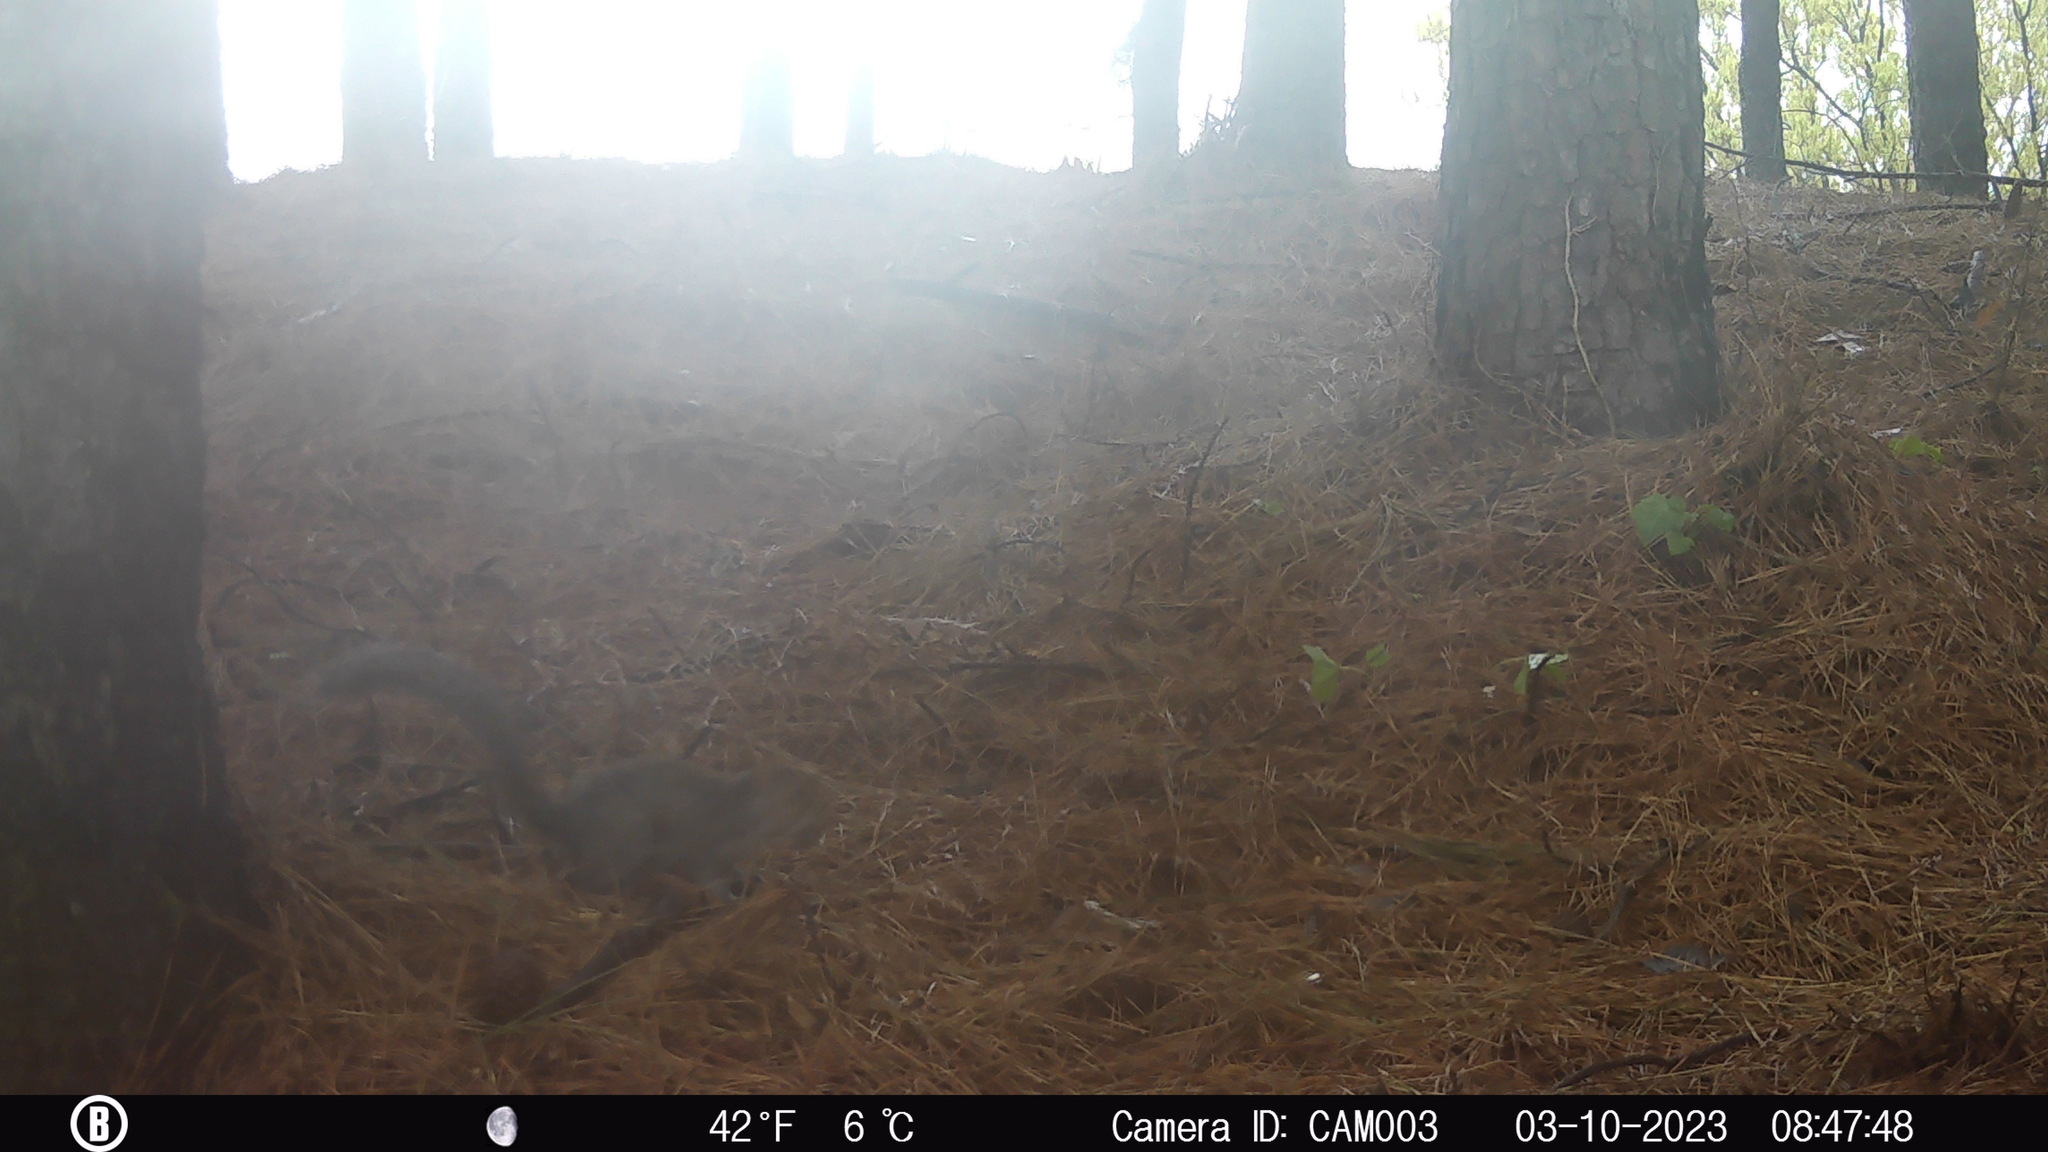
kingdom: Animalia
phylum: Chordata
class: Mammalia
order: Rodentia
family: Sciuridae
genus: Sciurus
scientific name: Sciurus carolinensis
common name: Eastern gray squirrel
